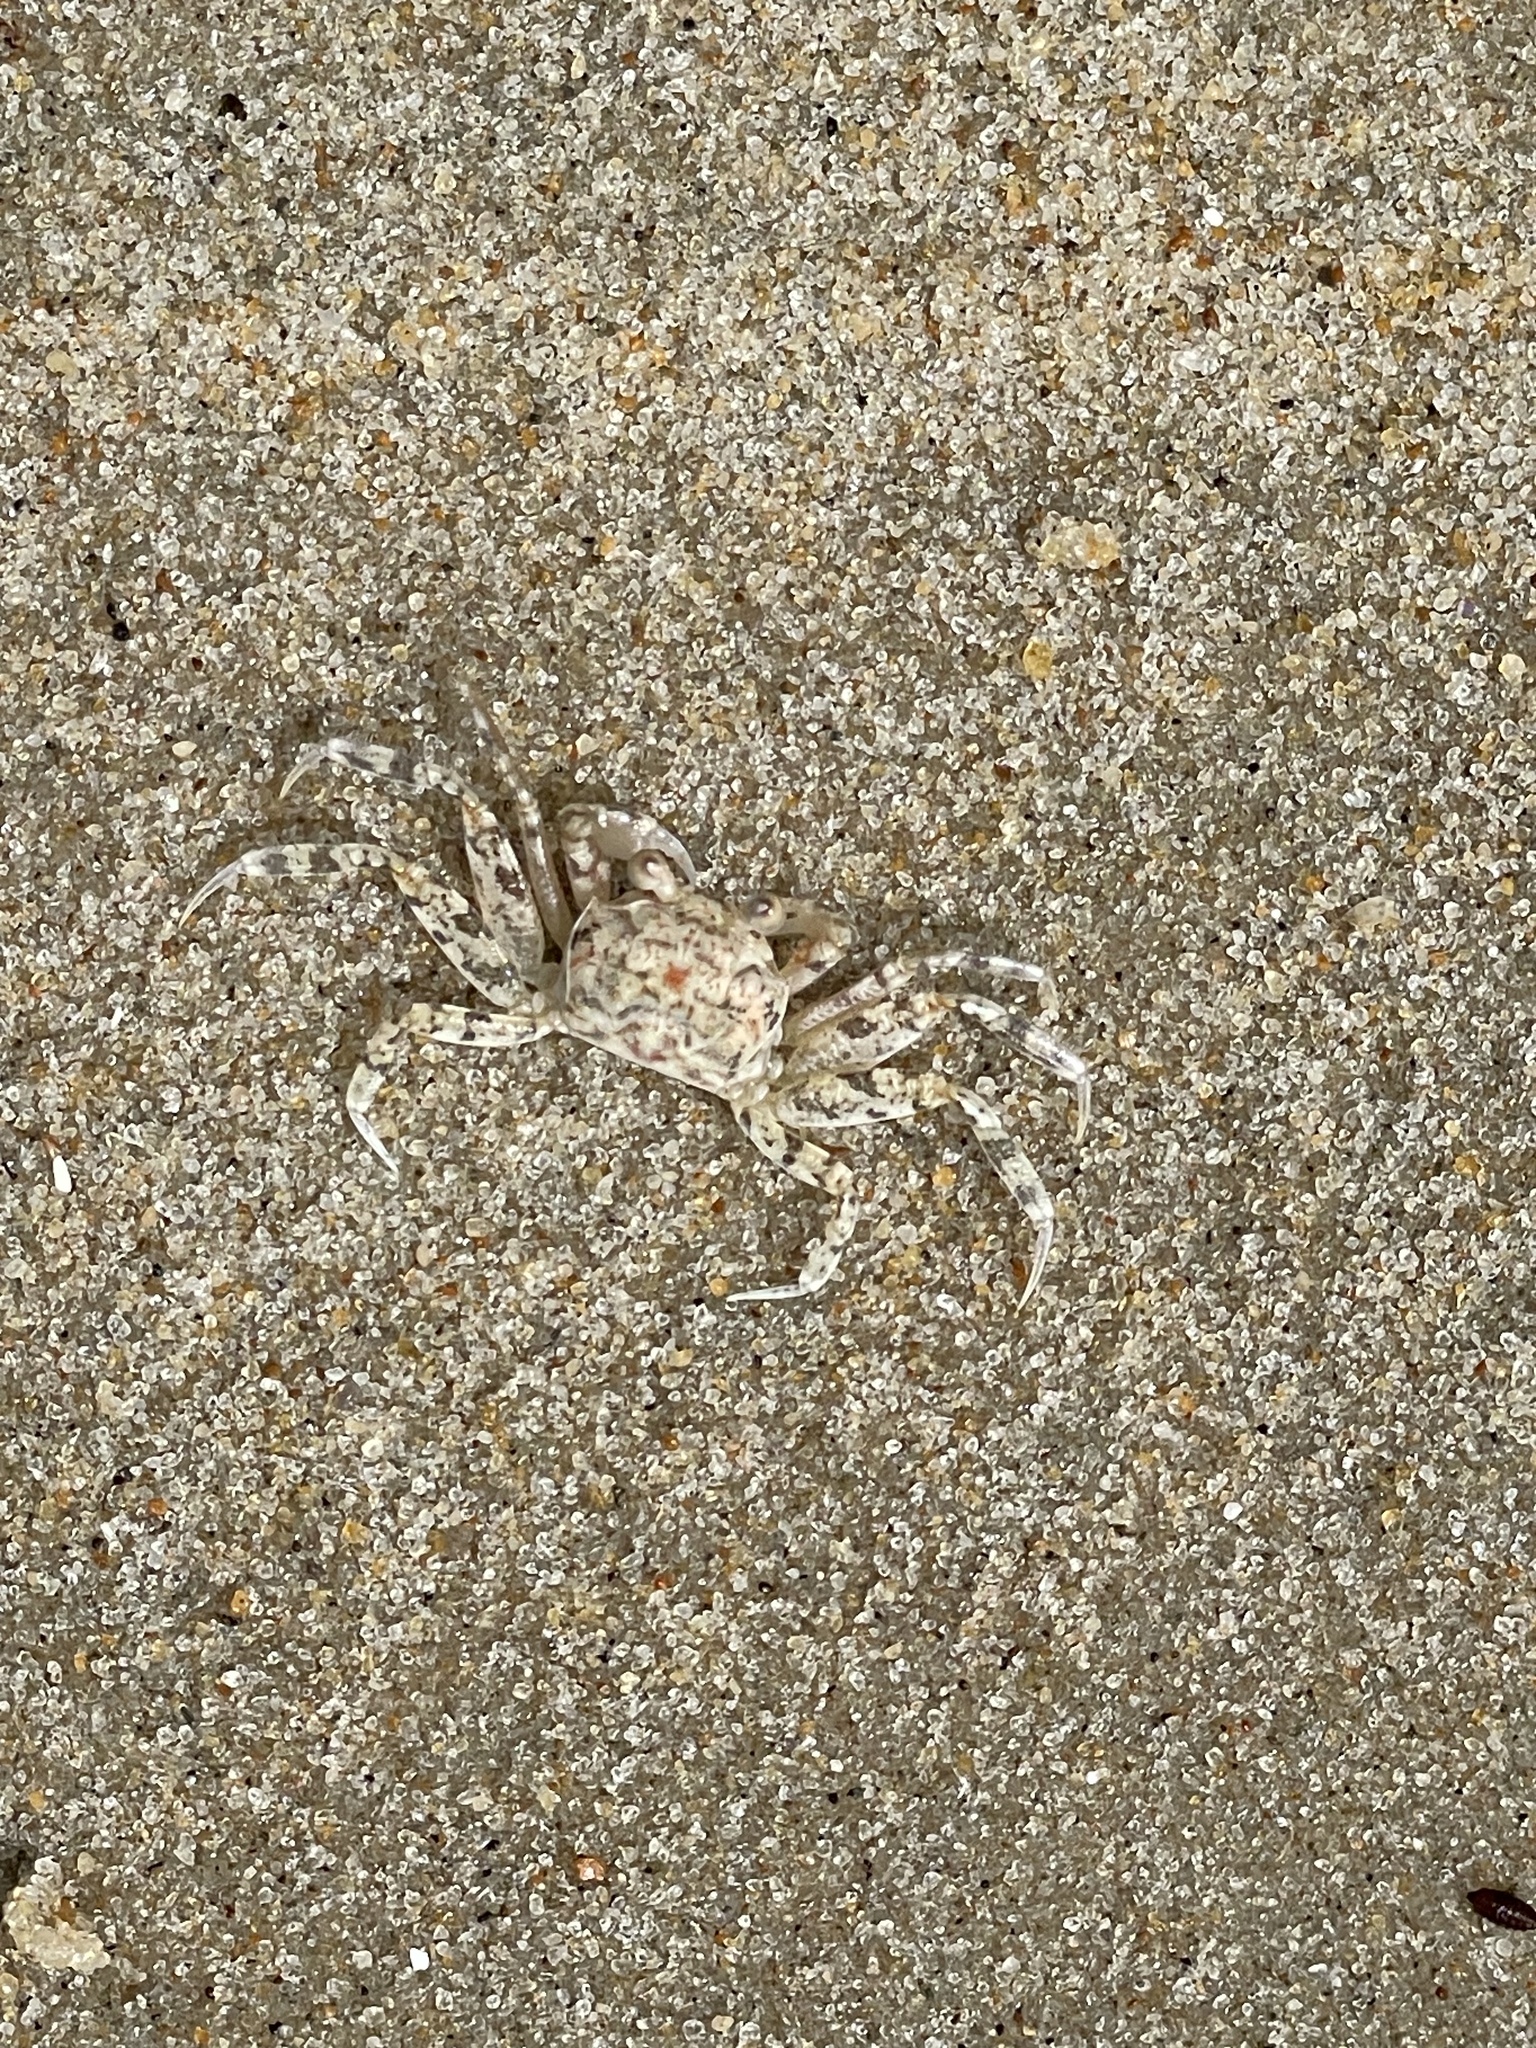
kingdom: Animalia
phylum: Arthropoda
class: Malacostraca
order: Decapoda
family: Ocypodidae
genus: Ocypode
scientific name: Ocypode quadrata
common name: Ghost crab
